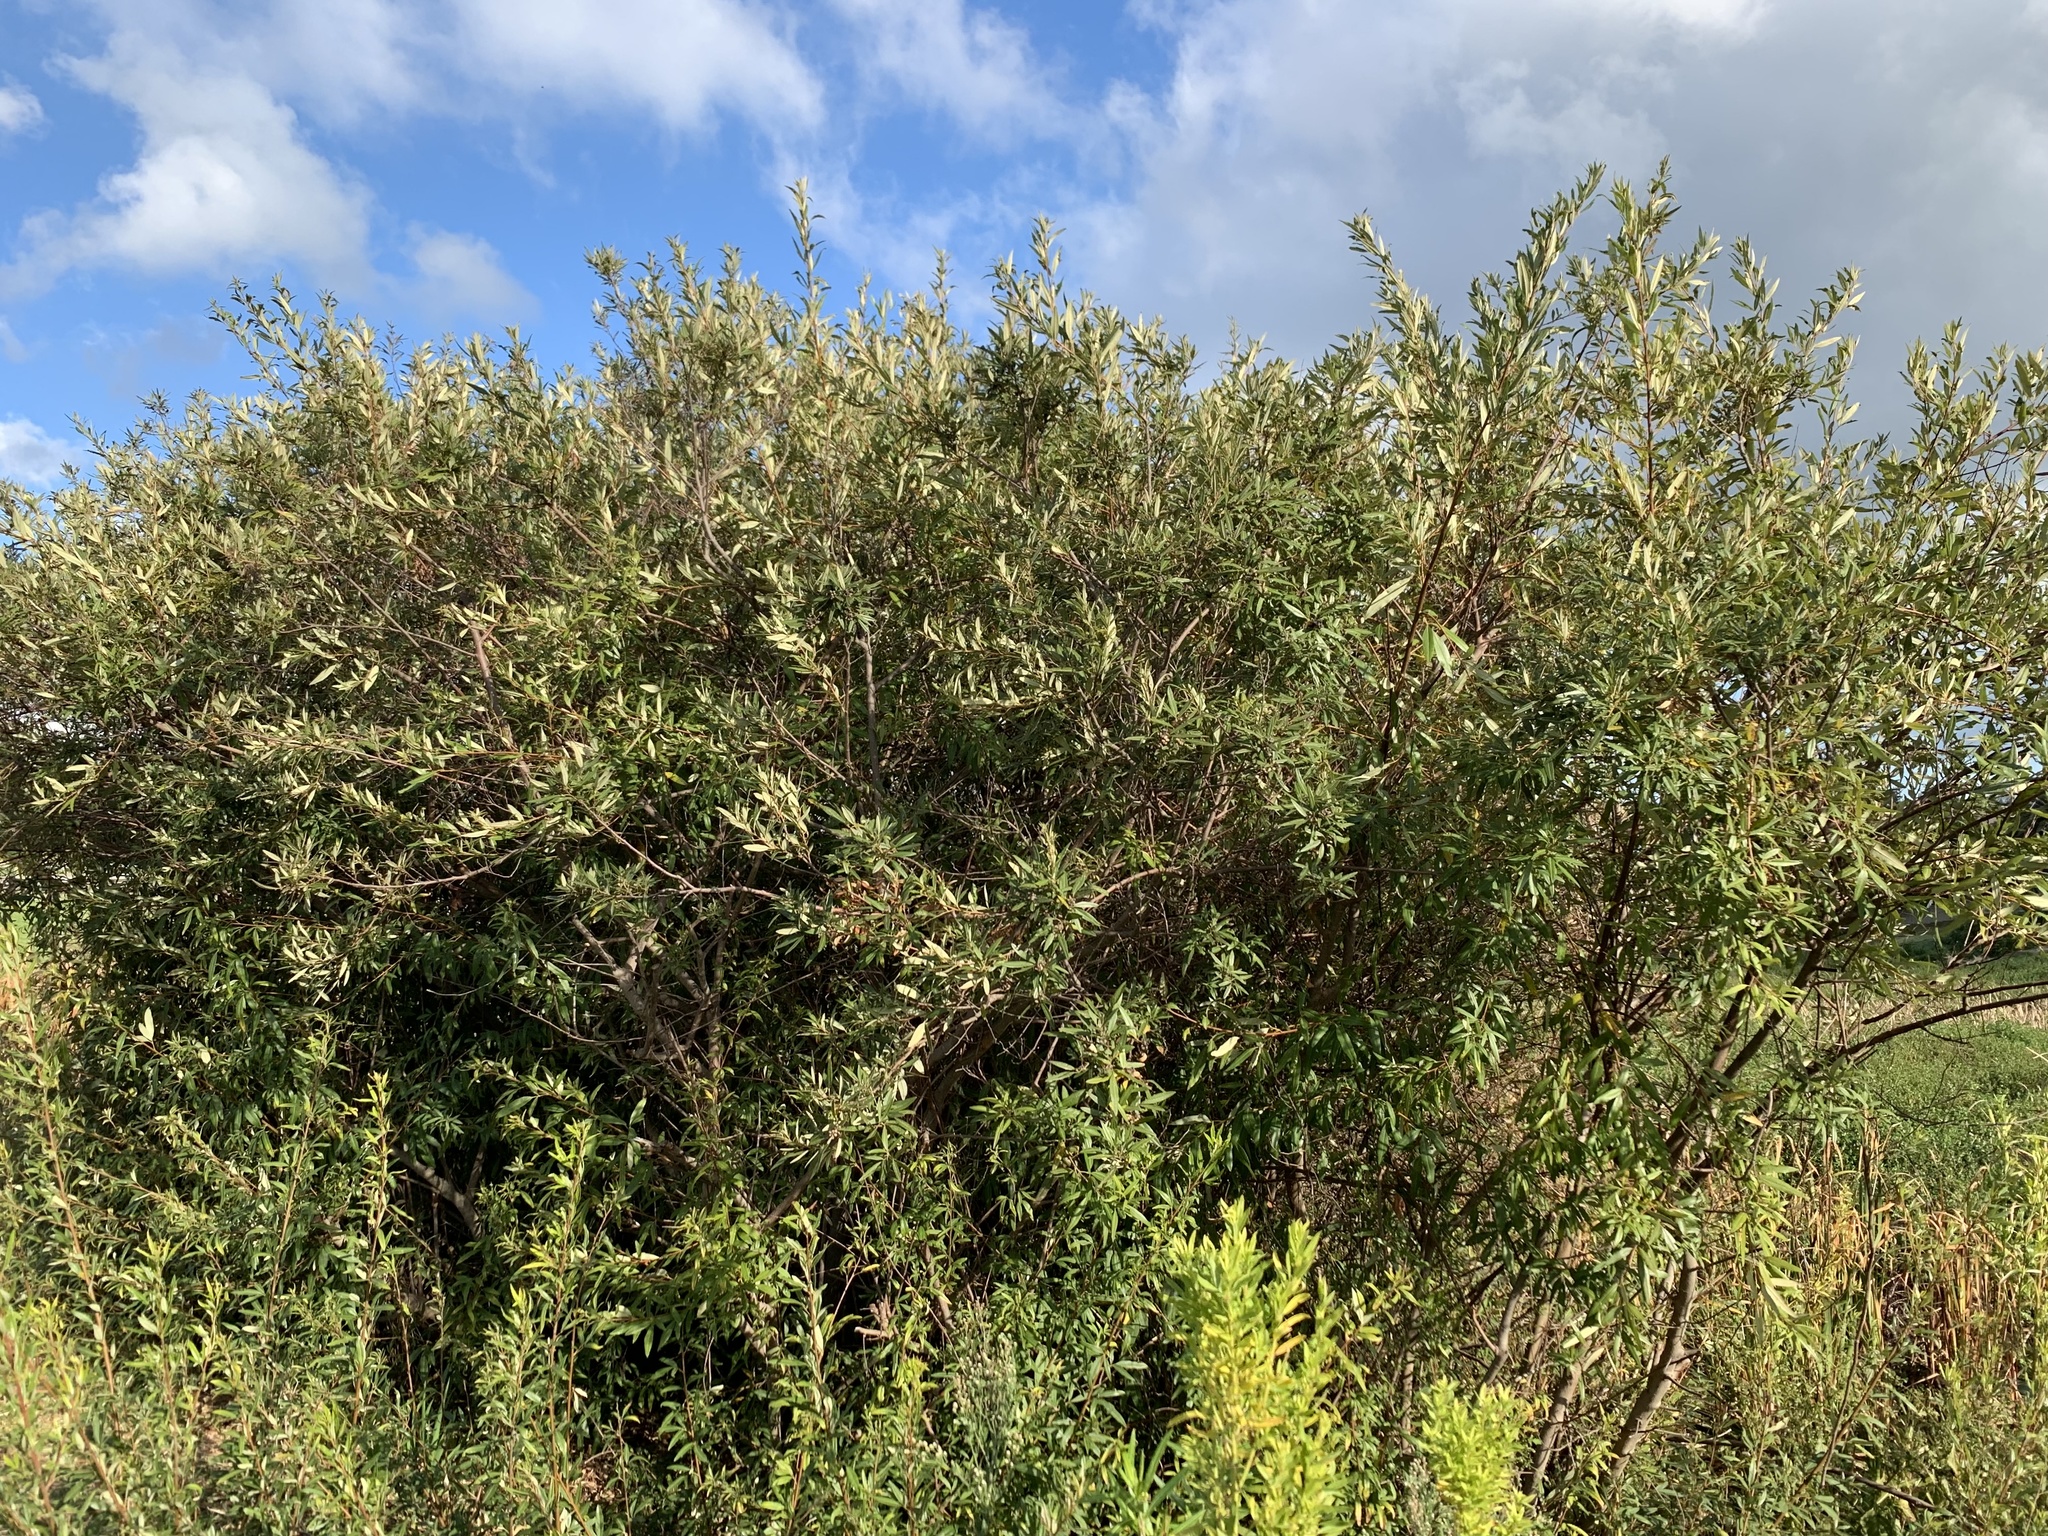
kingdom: Plantae
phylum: Tracheophyta
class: Magnoliopsida
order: Sapindales
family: Anacardiaceae
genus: Searsia
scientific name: Searsia angustifolia
